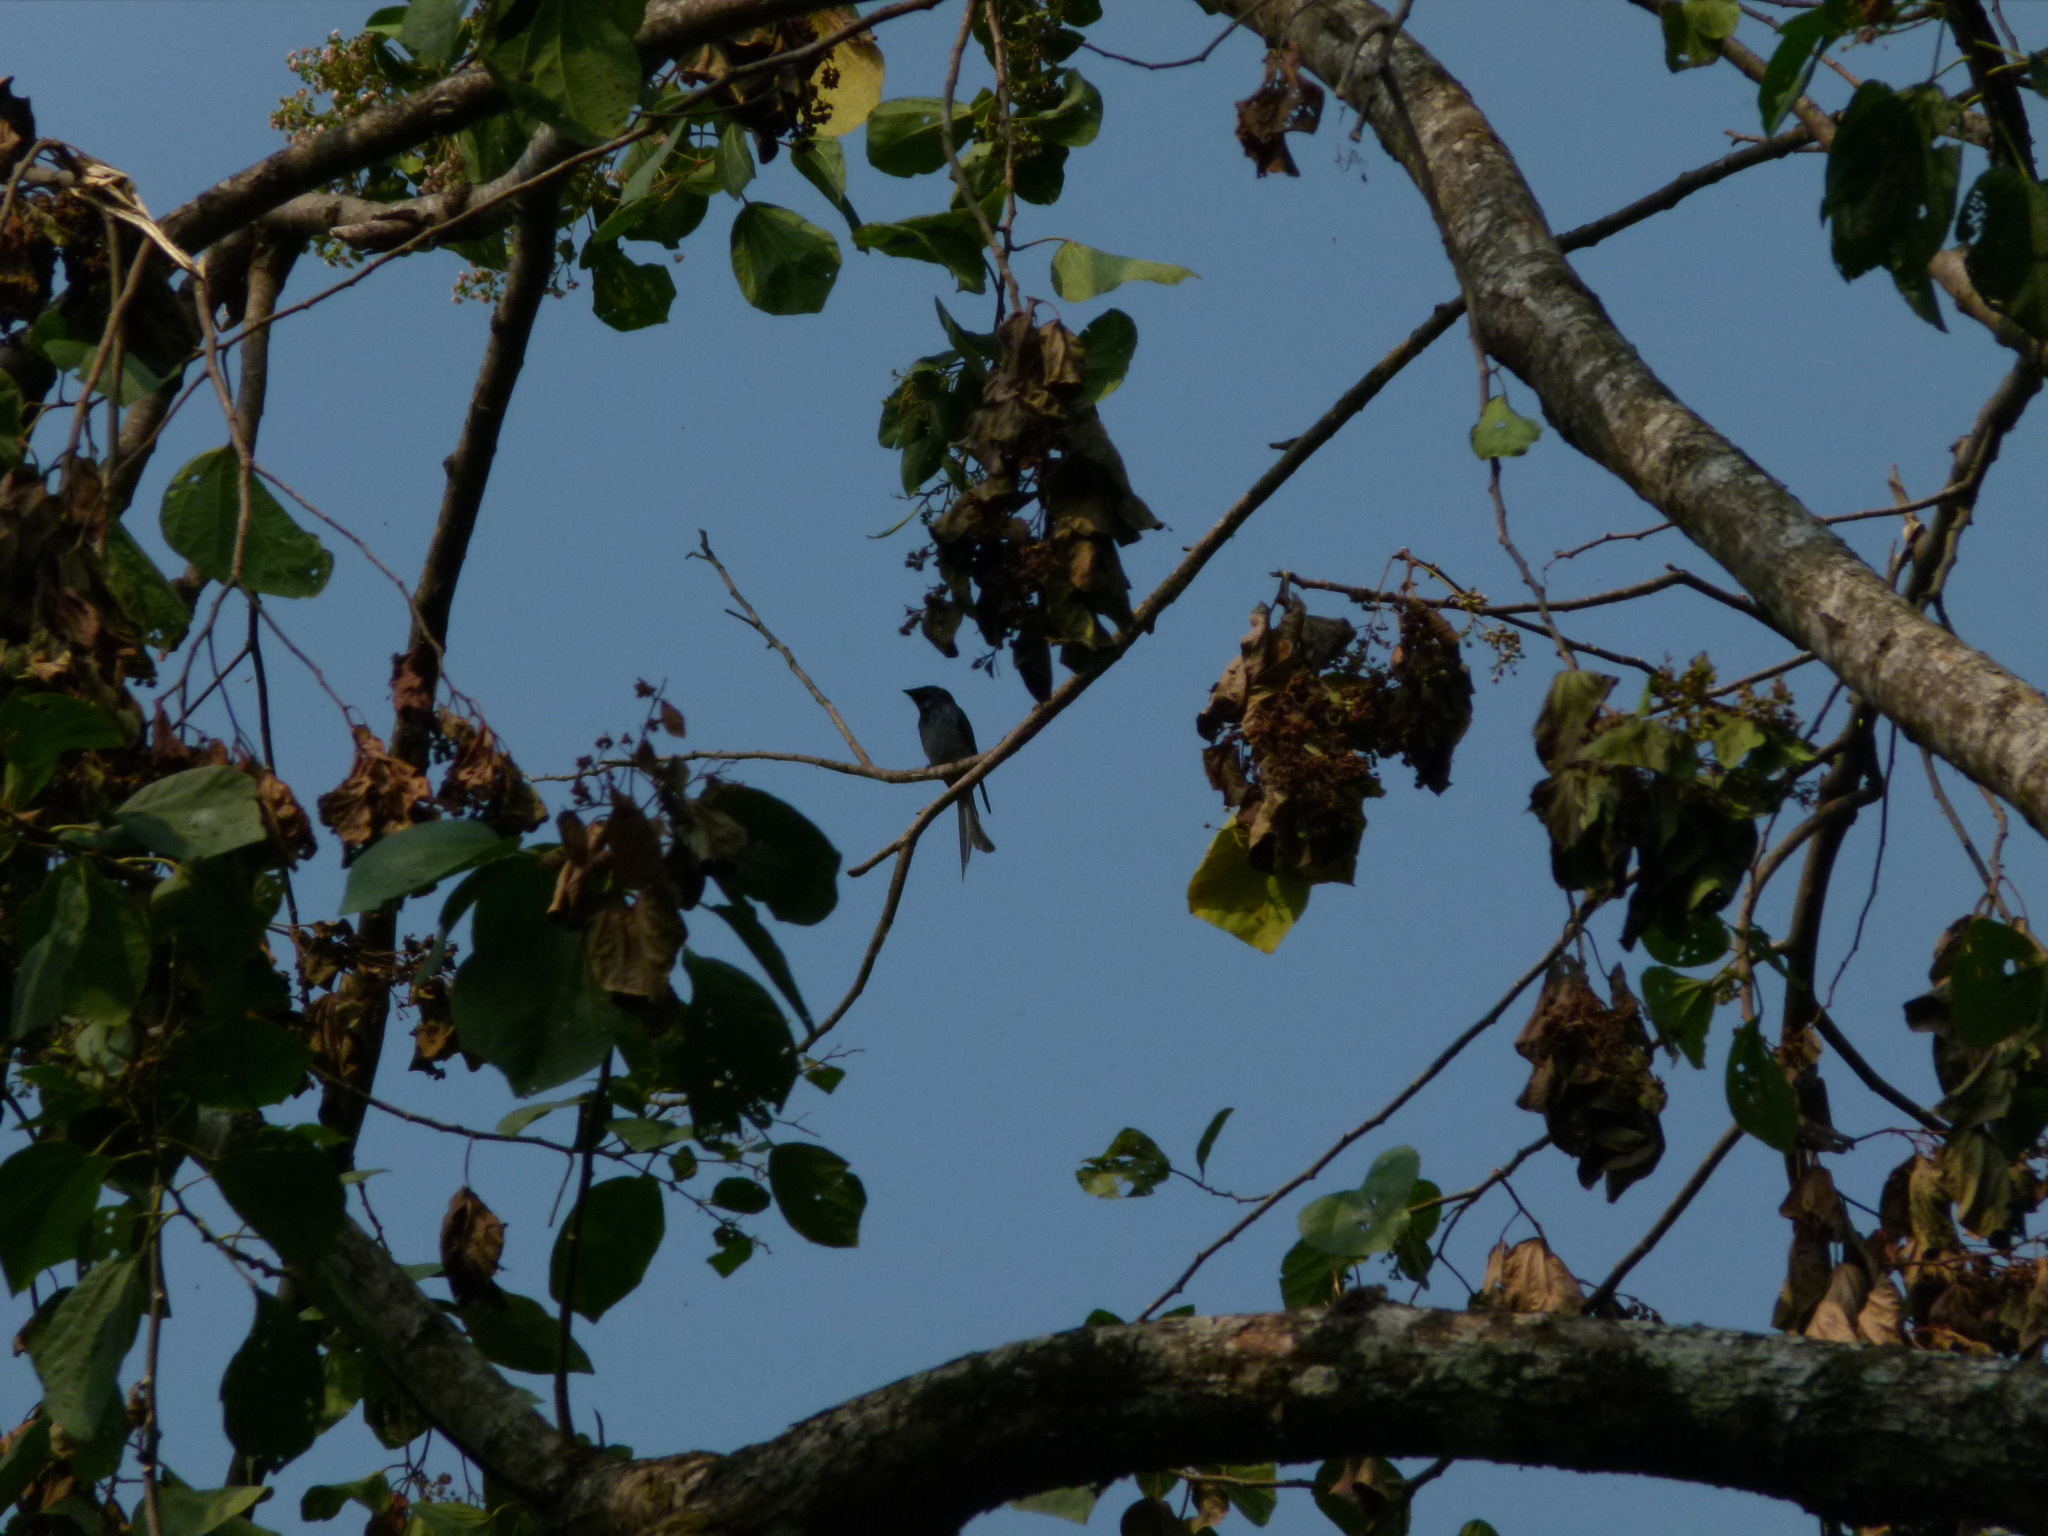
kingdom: Animalia
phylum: Chordata
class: Aves
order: Passeriformes
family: Dicruridae
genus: Dicrurus
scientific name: Dicrurus macrocercus
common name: Black drongo
